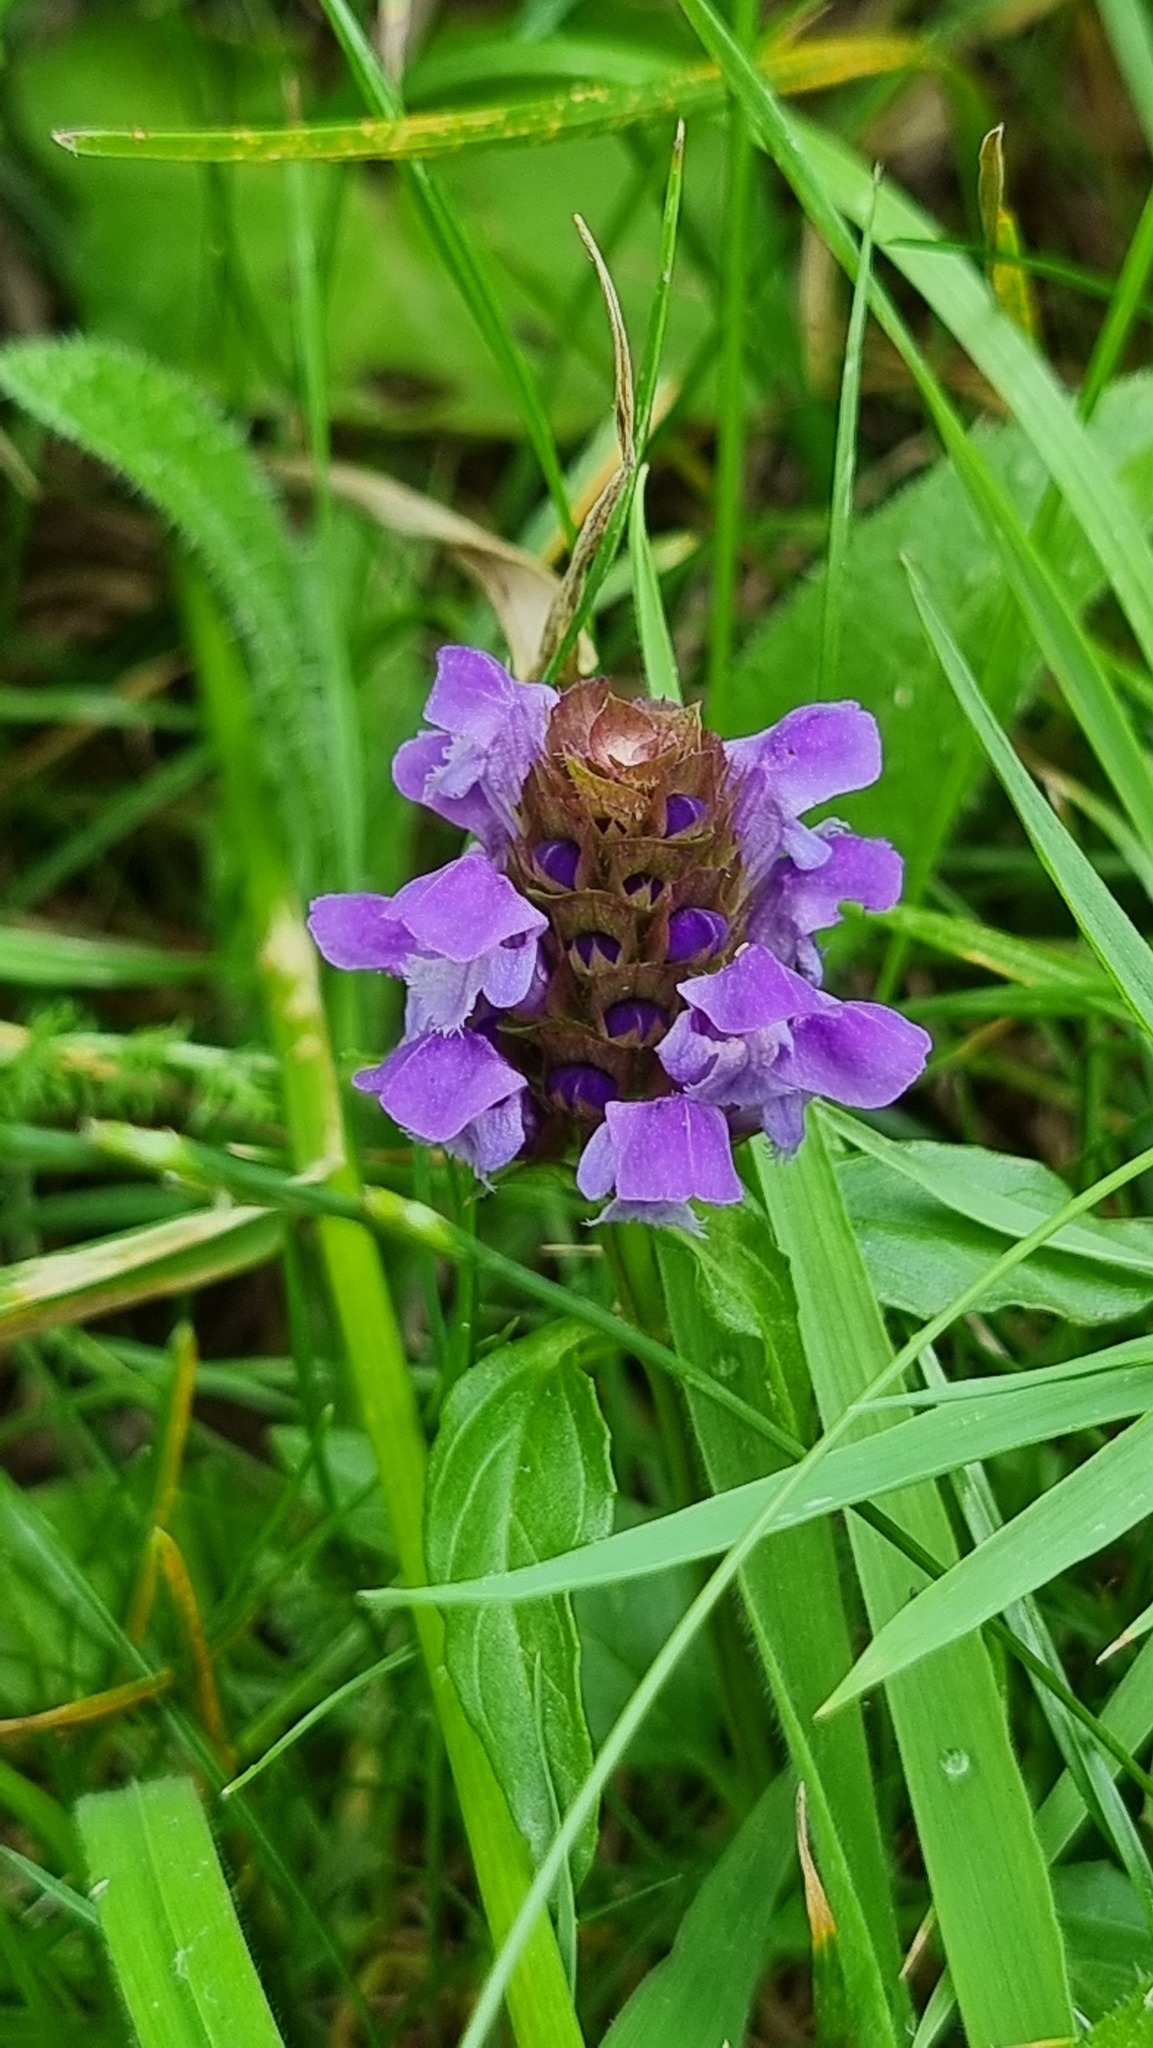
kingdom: Plantae
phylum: Tracheophyta
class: Magnoliopsida
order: Lamiales
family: Lamiaceae
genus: Prunella
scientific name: Prunella vulgaris
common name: Heal-all
